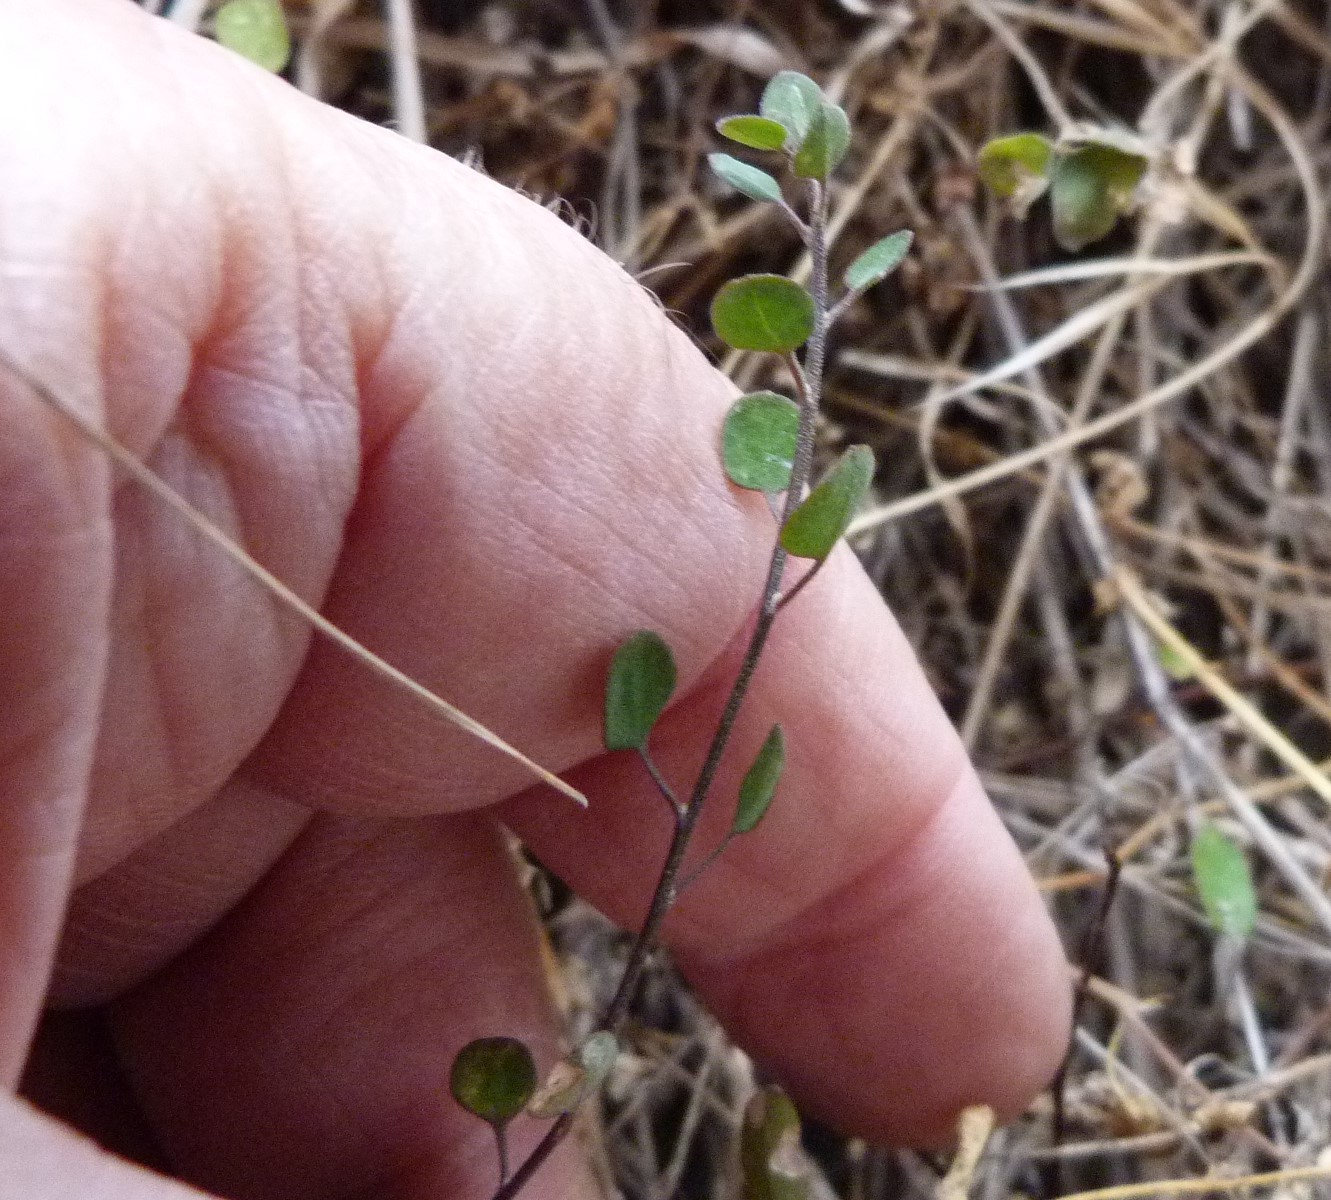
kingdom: Plantae
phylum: Tracheophyta
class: Magnoliopsida
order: Caryophyllales
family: Amaranthaceae
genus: Chenopodium
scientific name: Chenopodium allanii
